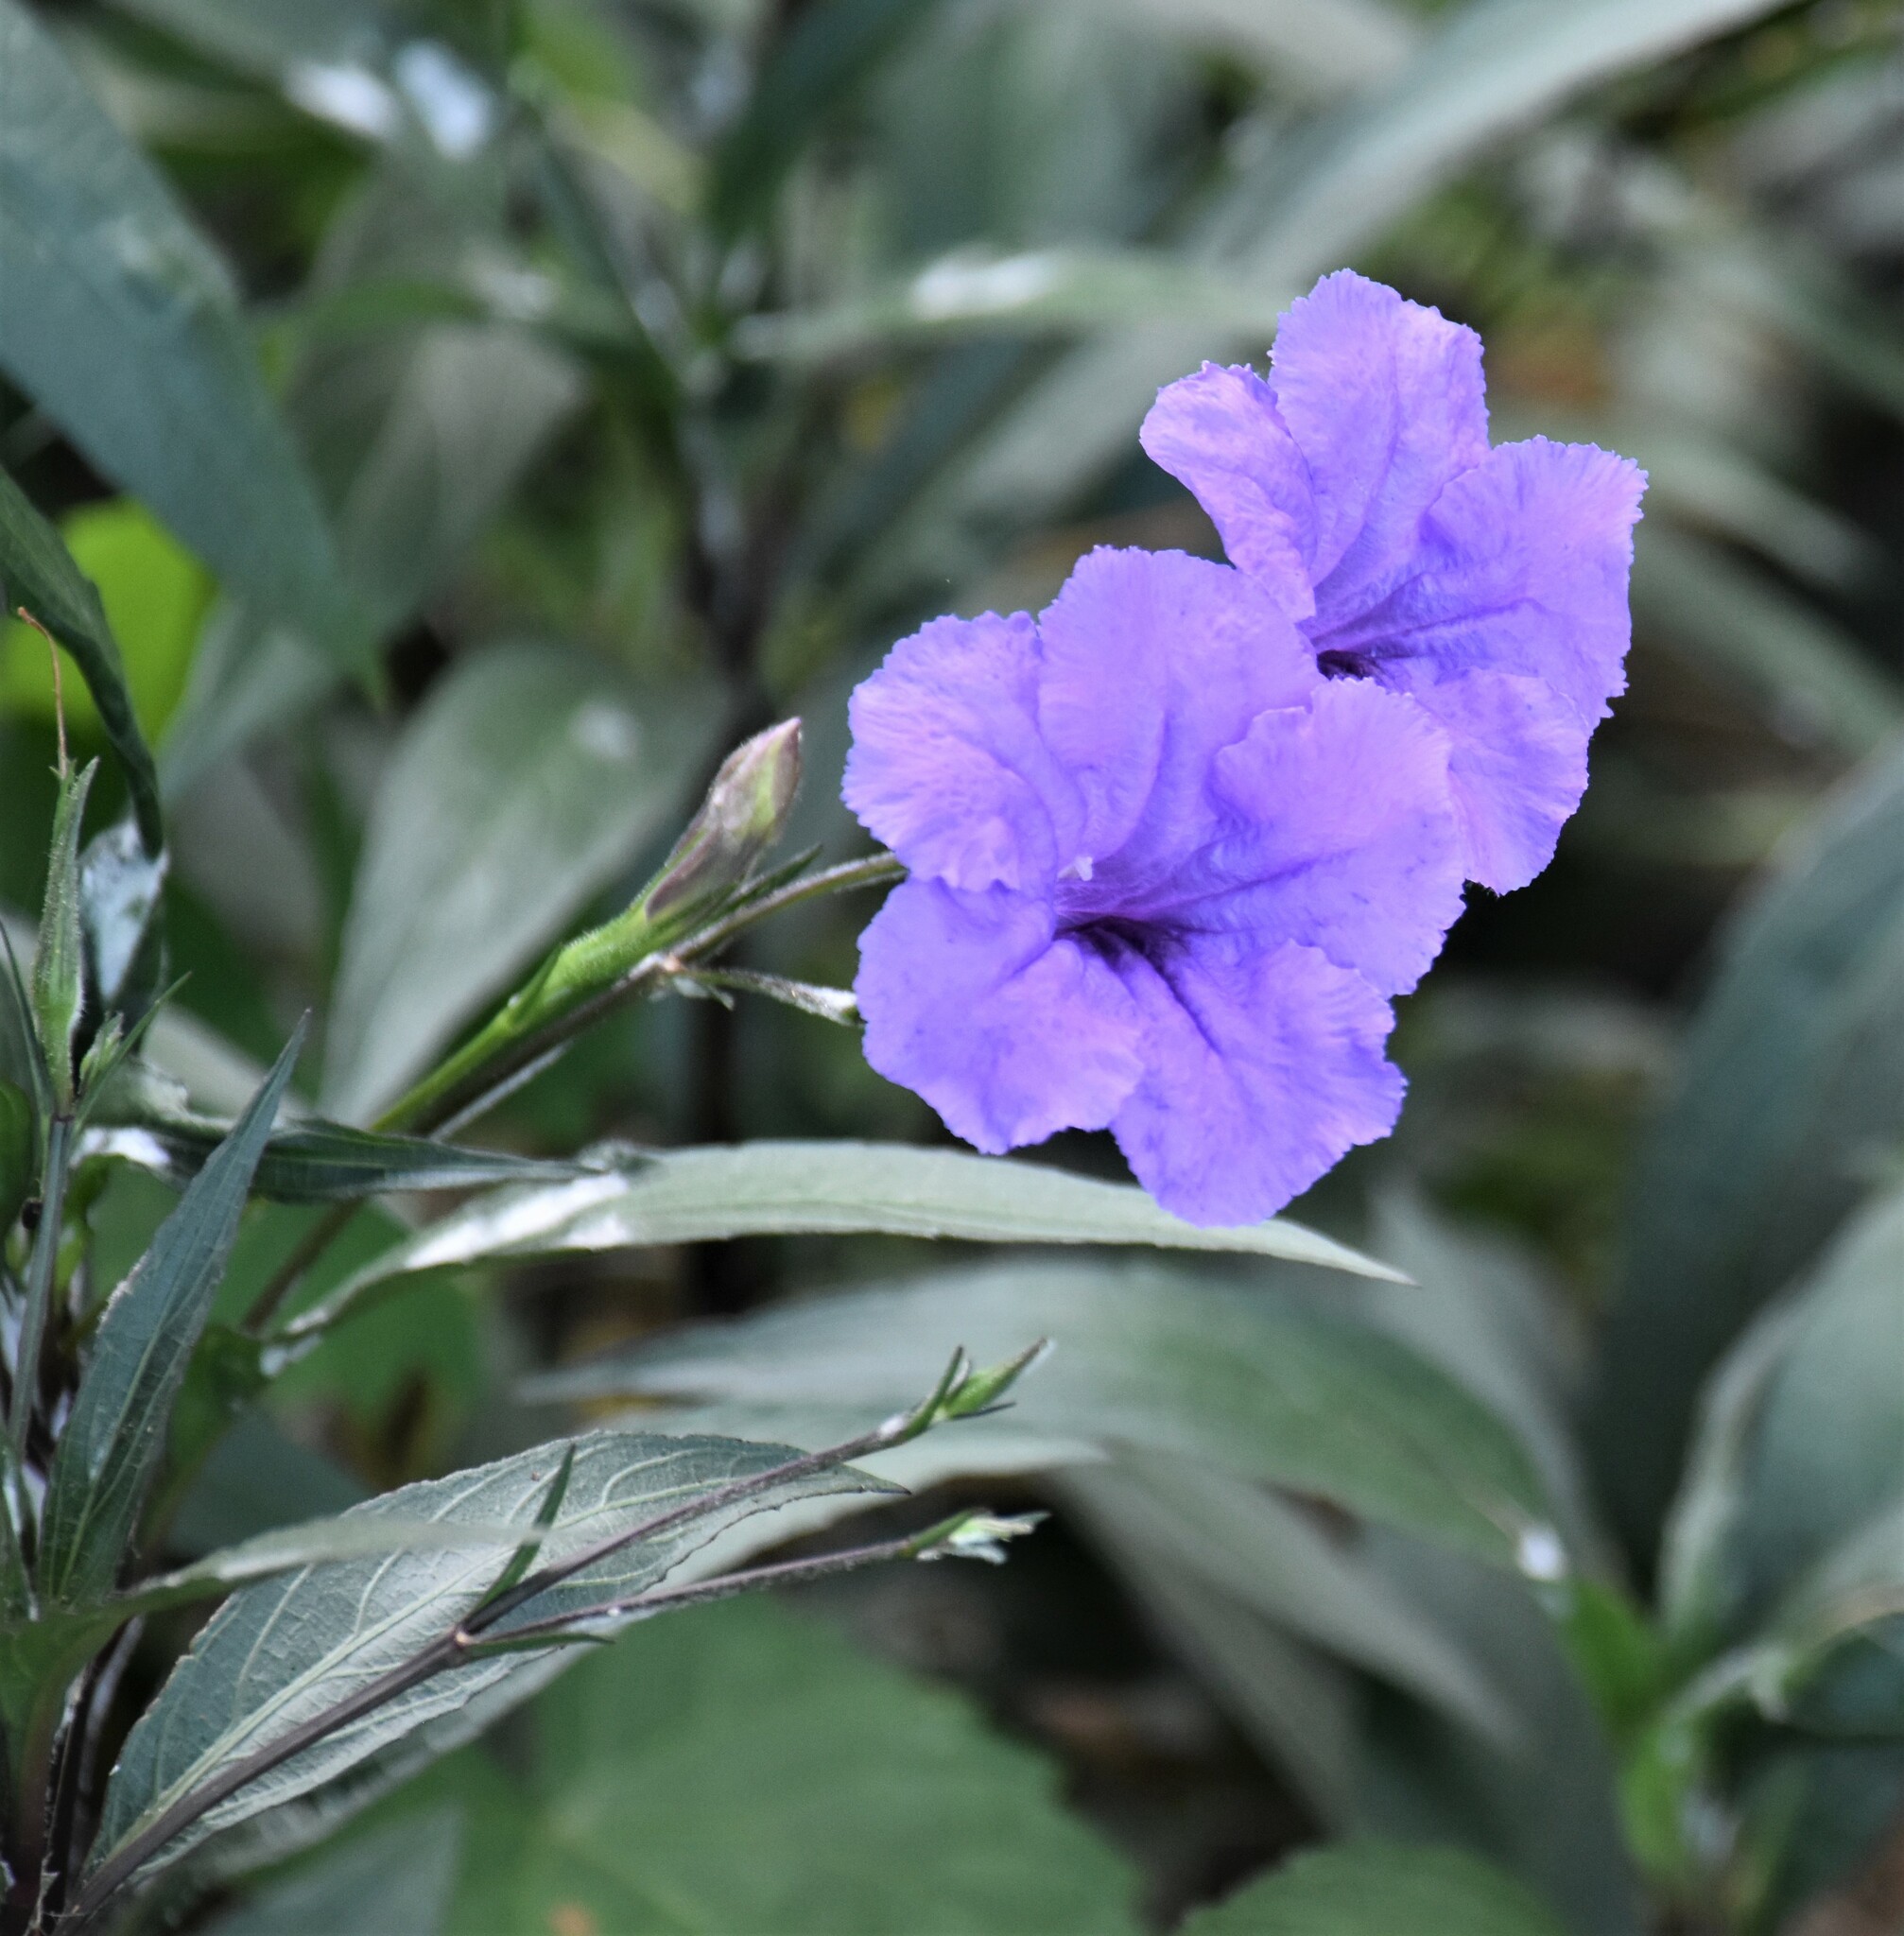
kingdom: Plantae
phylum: Tracheophyta
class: Magnoliopsida
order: Lamiales
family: Acanthaceae
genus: Ruellia
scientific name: Ruellia simplex
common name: Softseed wild petunia
